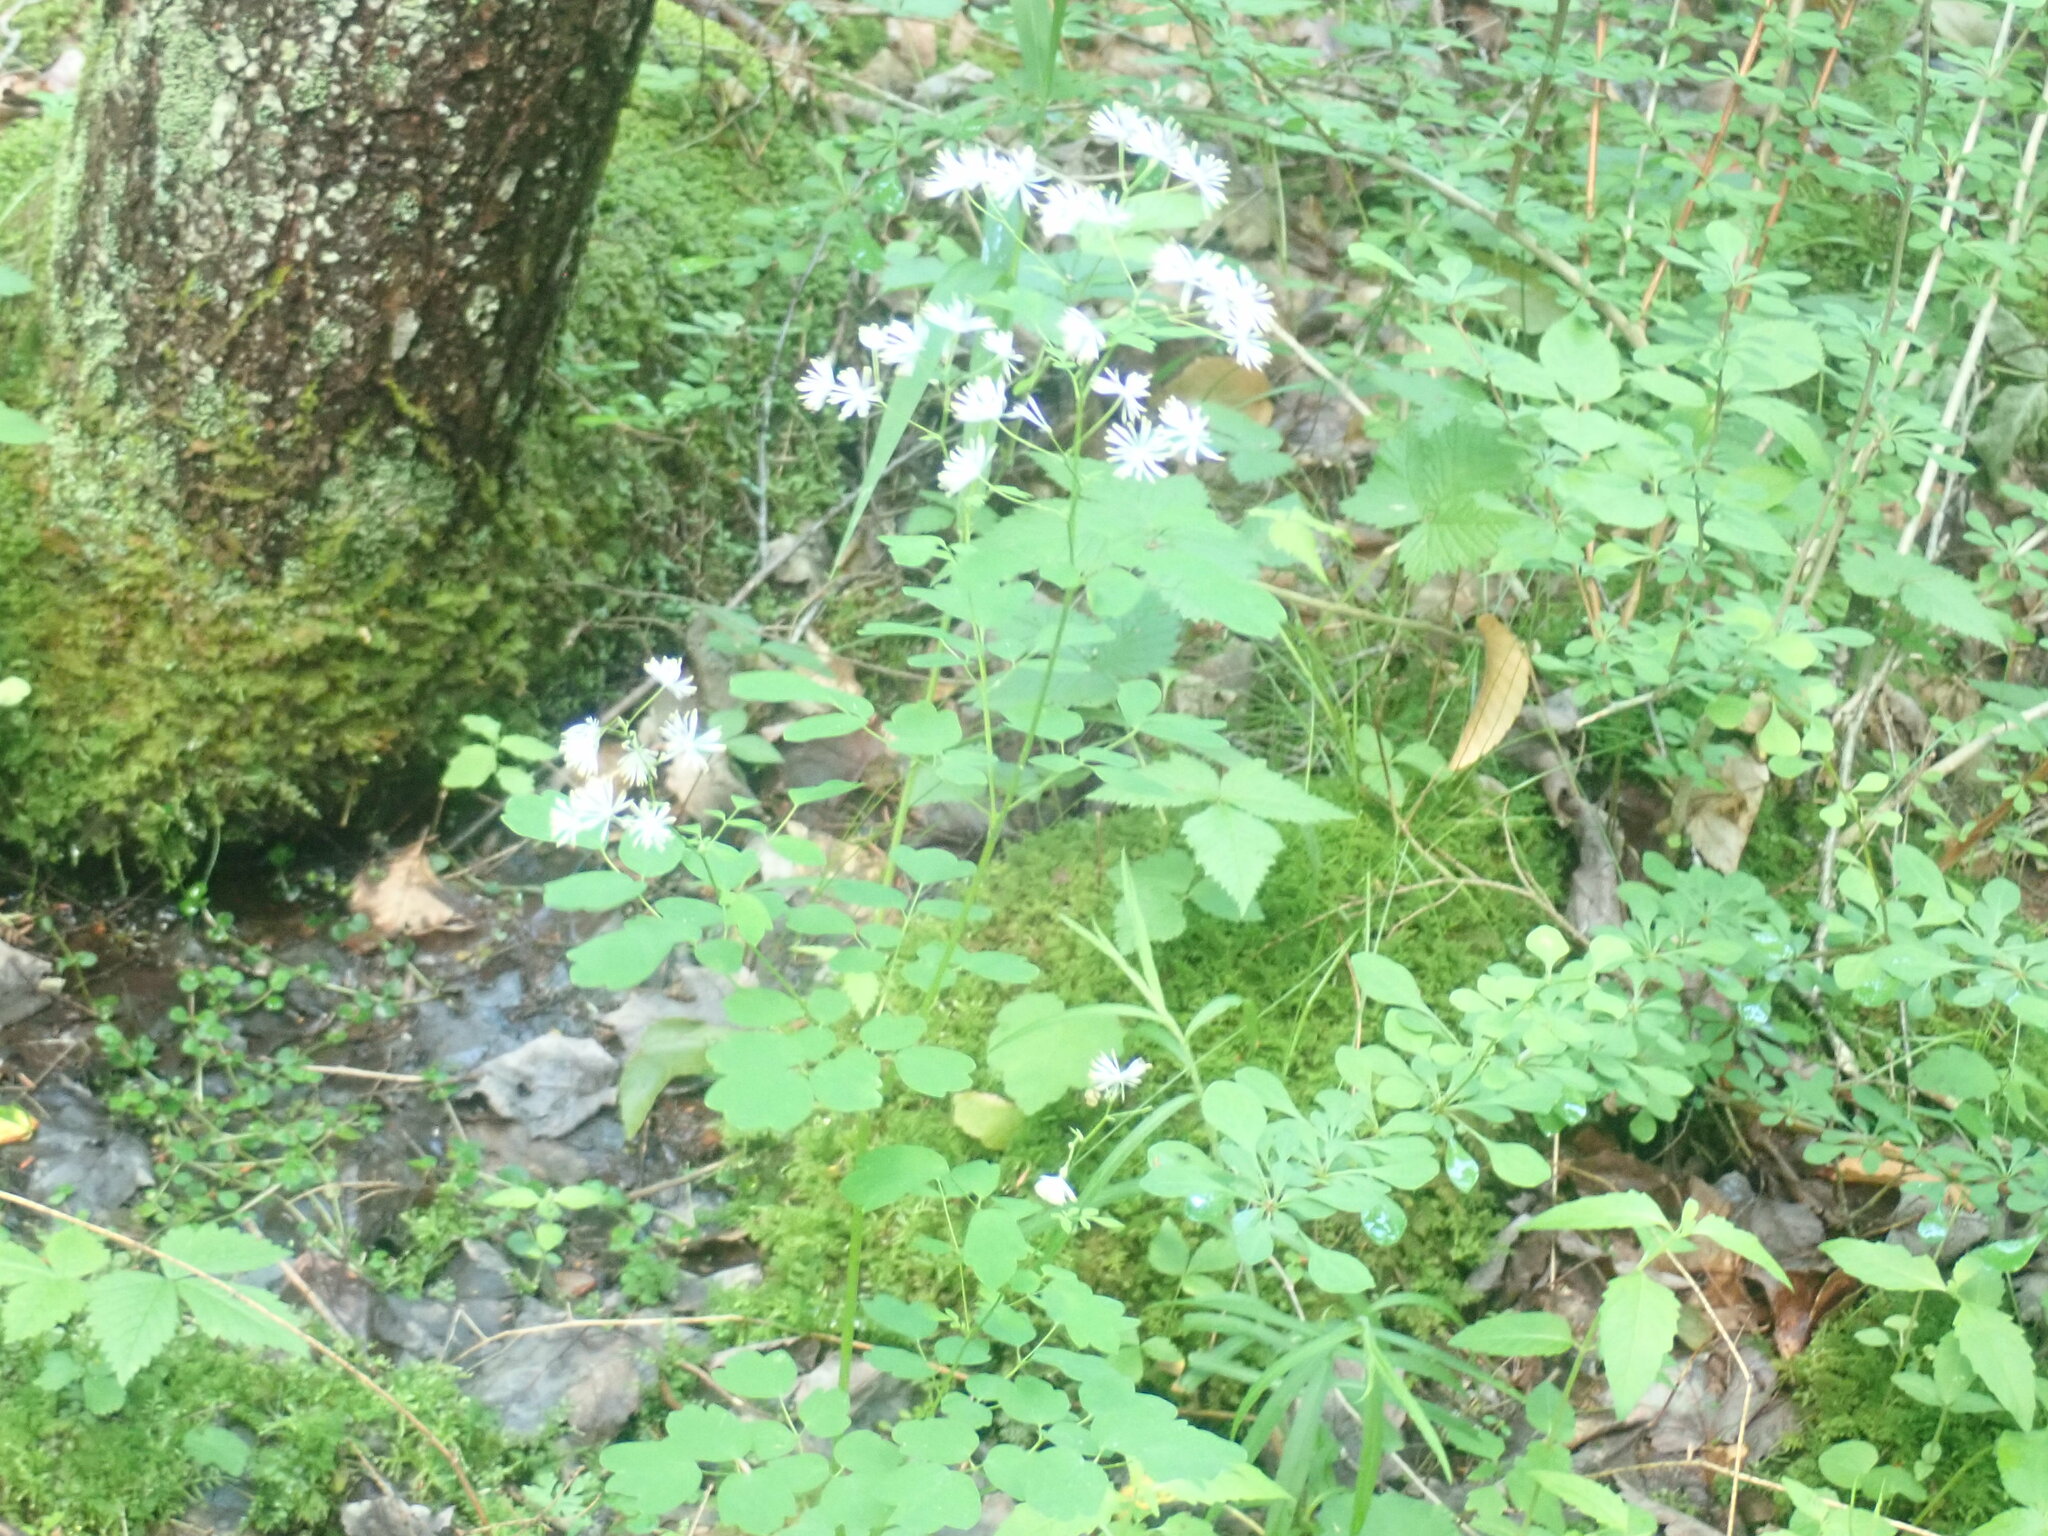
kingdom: Plantae
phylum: Tracheophyta
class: Magnoliopsida
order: Ranunculales
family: Ranunculaceae
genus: Thalictrum
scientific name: Thalictrum pubescens
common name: King-of-the-meadow
